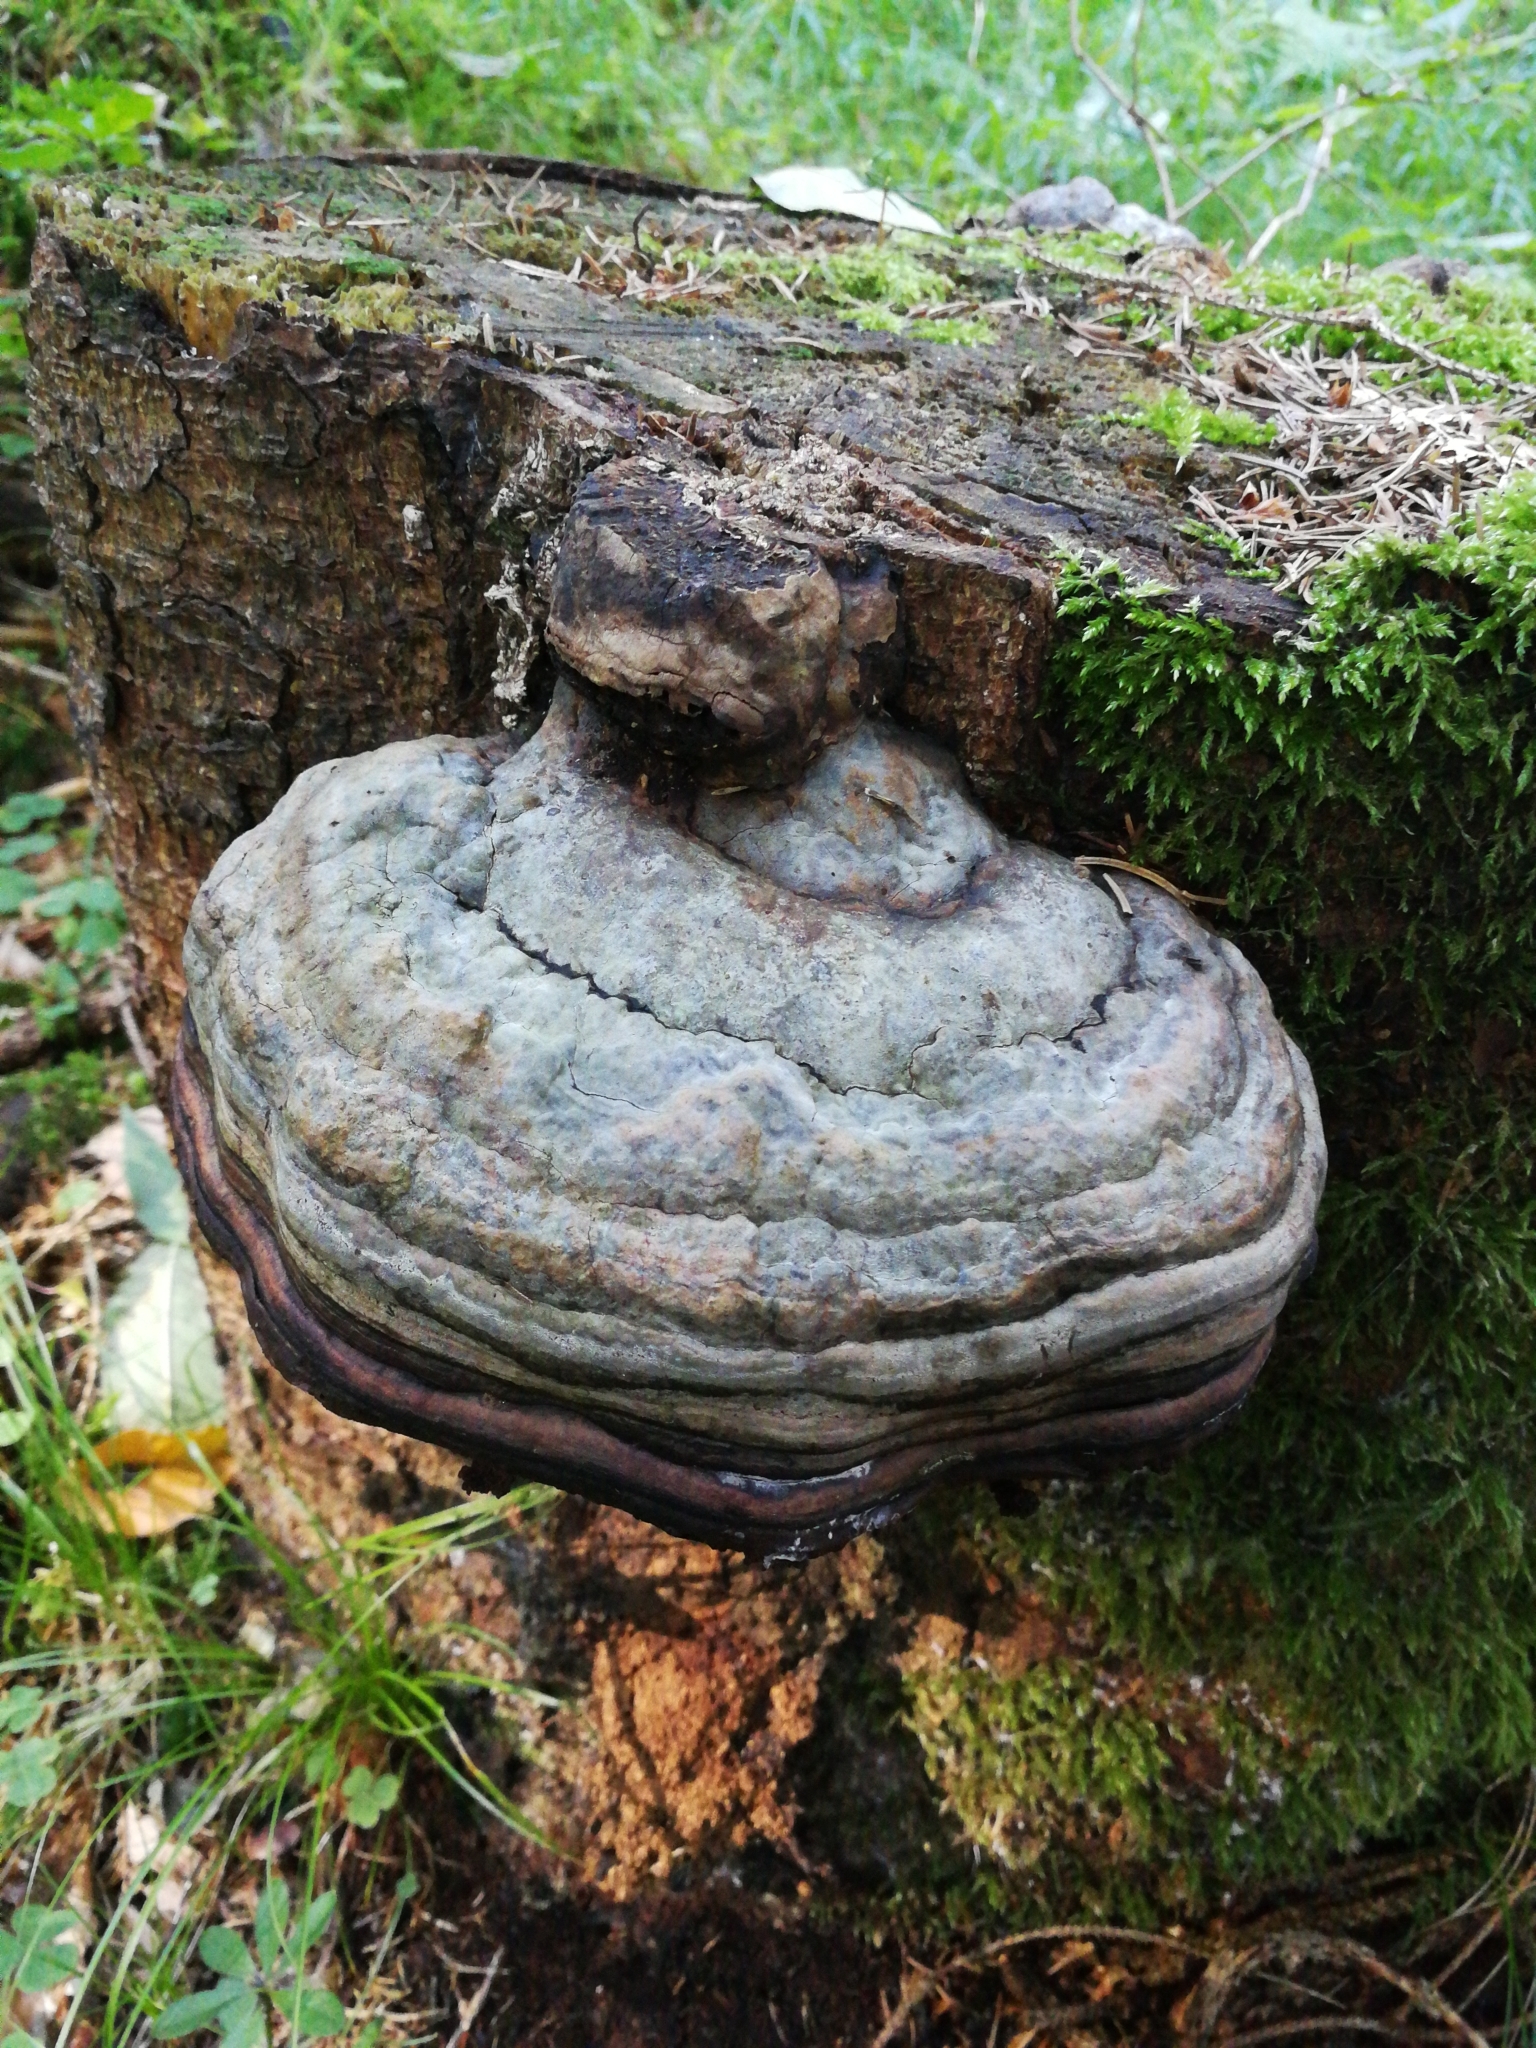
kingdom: Fungi
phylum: Basidiomycota
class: Agaricomycetes
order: Polyporales
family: Fomitopsidaceae
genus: Fomitopsis
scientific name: Fomitopsis pinicola
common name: Red-belted bracket
